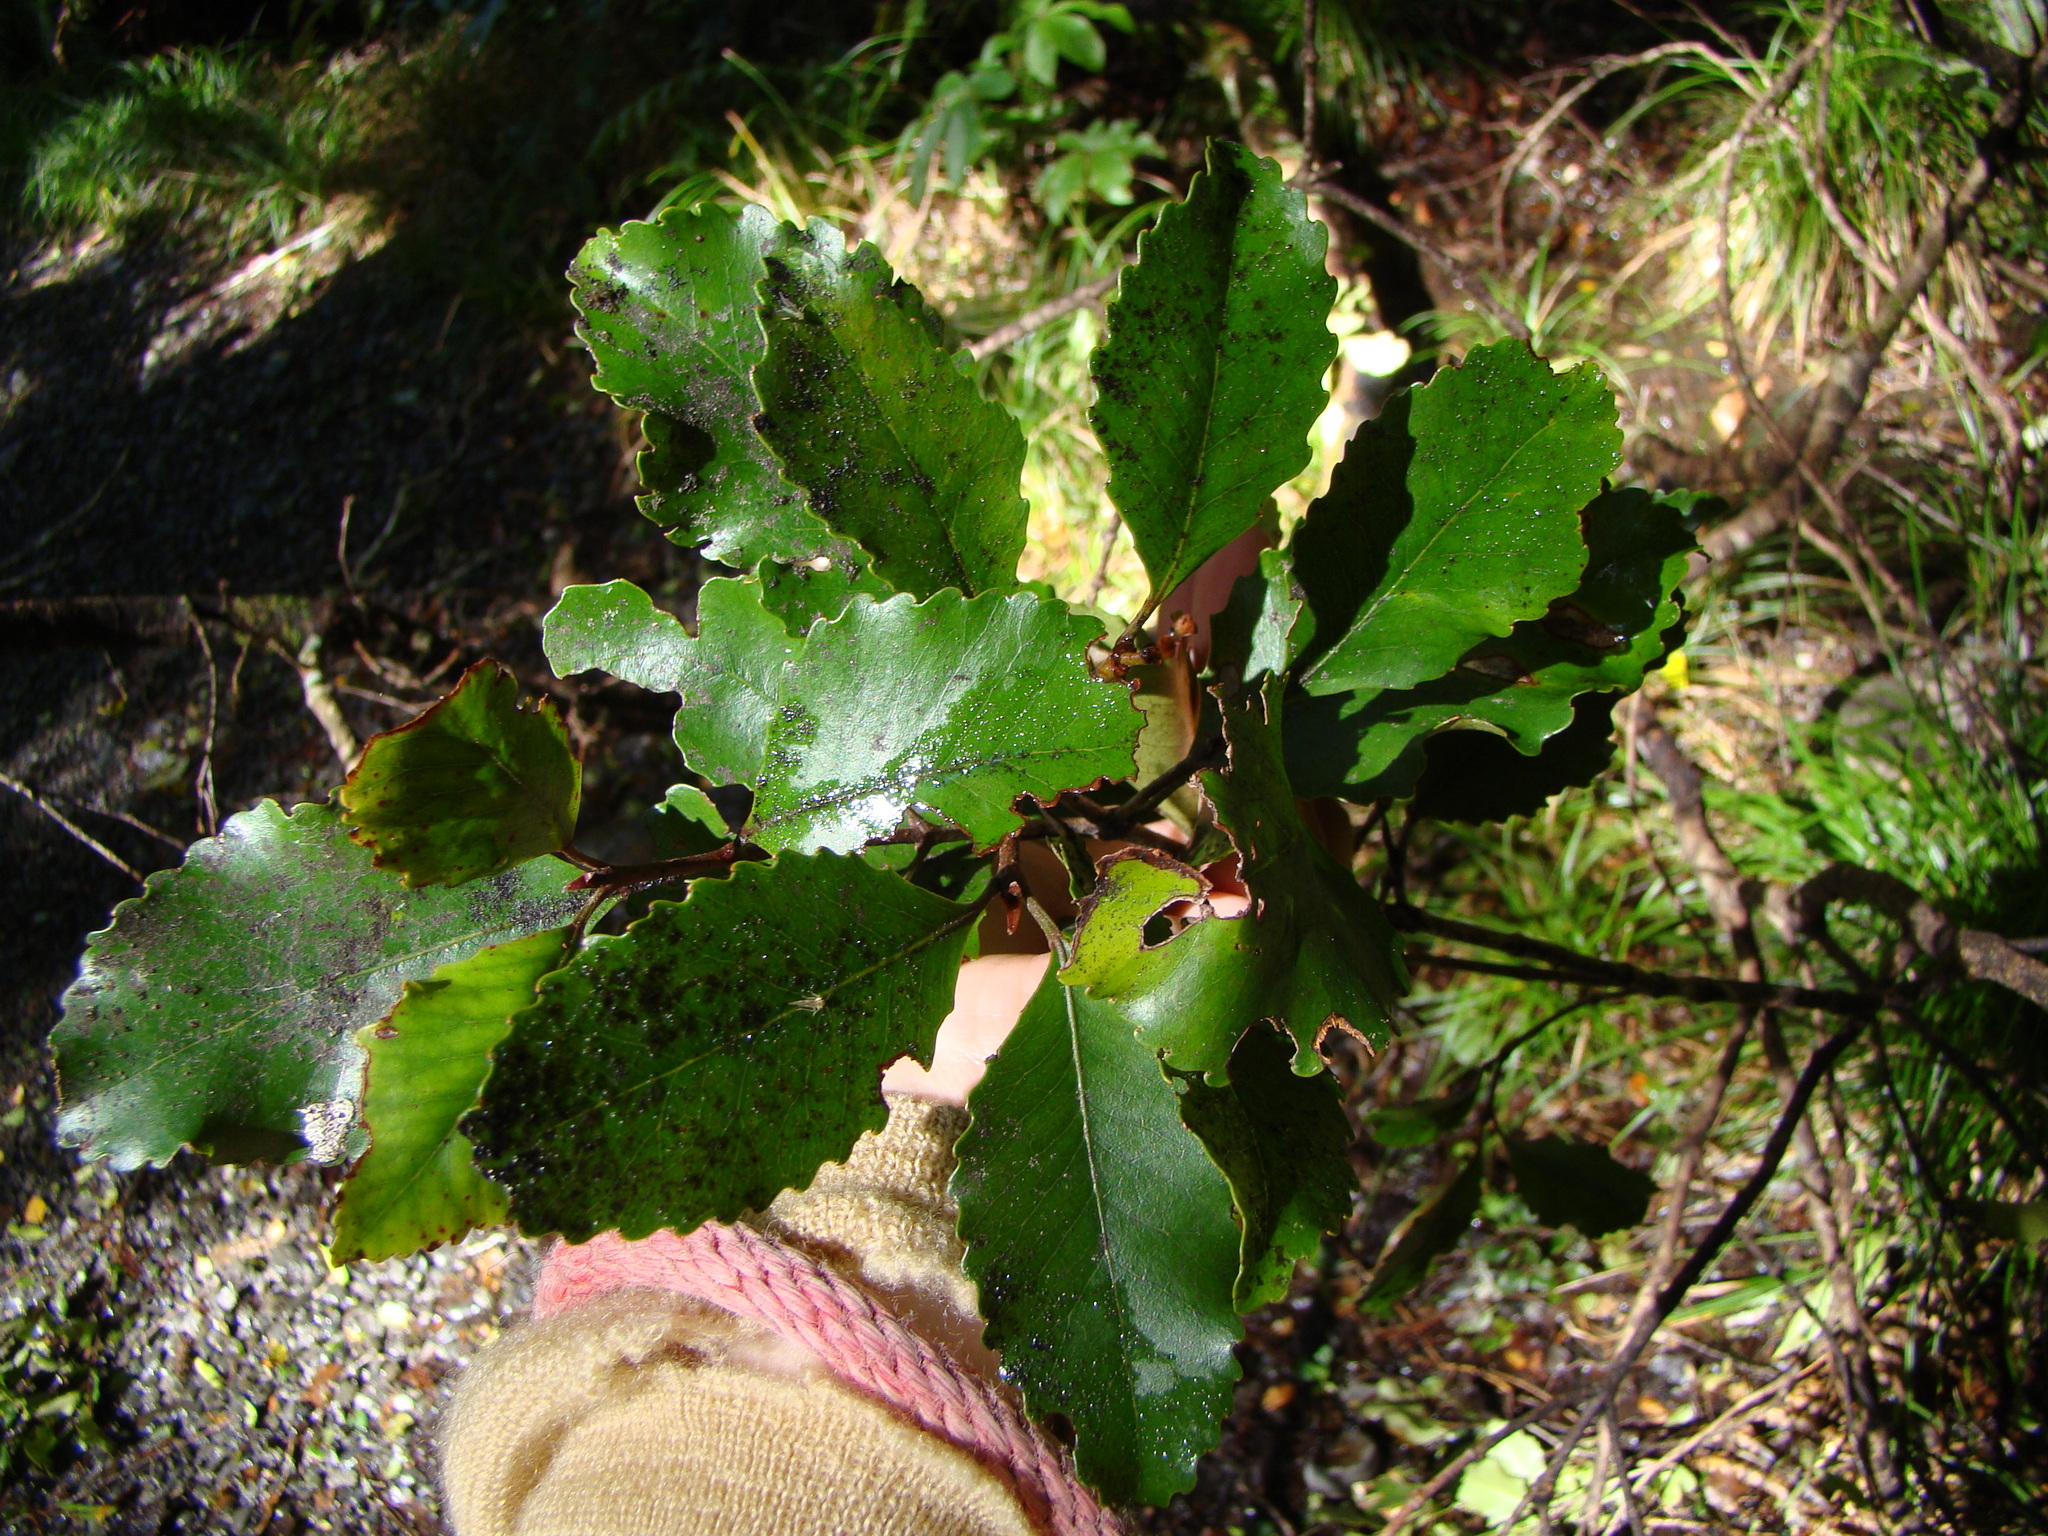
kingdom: Plantae
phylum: Tracheophyta
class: Magnoliopsida
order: Oxalidales
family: Cunoniaceae
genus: Pterophylla
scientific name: Pterophylla racemosa
